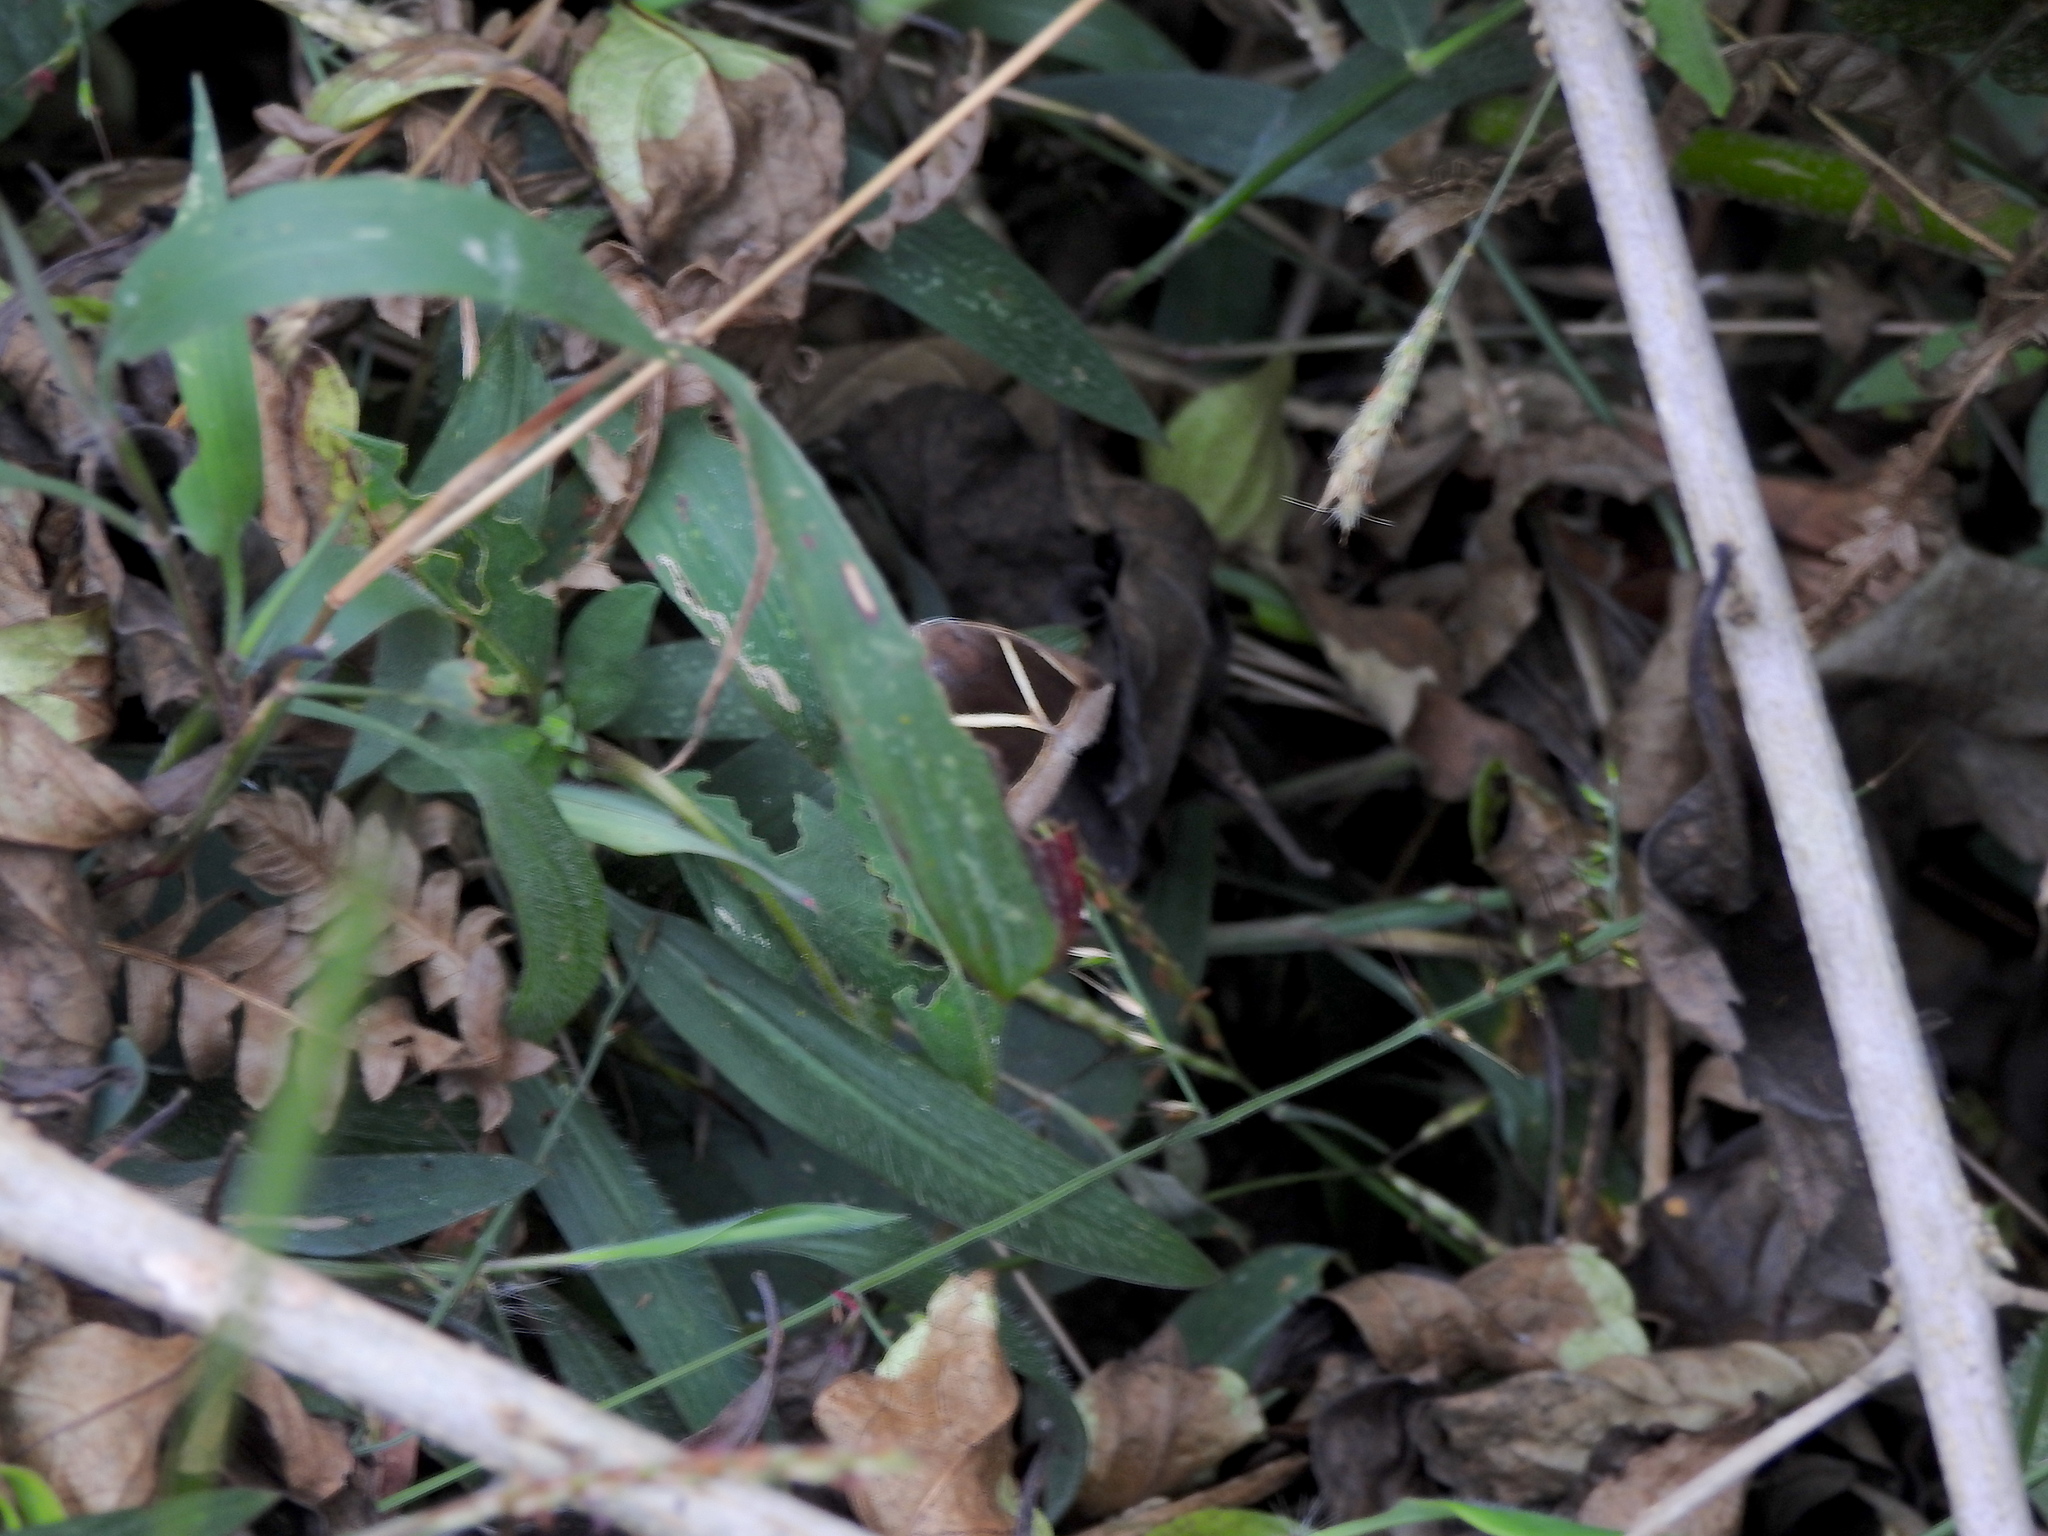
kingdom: Animalia
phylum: Arthropoda
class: Insecta
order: Lepidoptera
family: Erebidae
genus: Chalciope
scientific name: Chalciope mygdon
